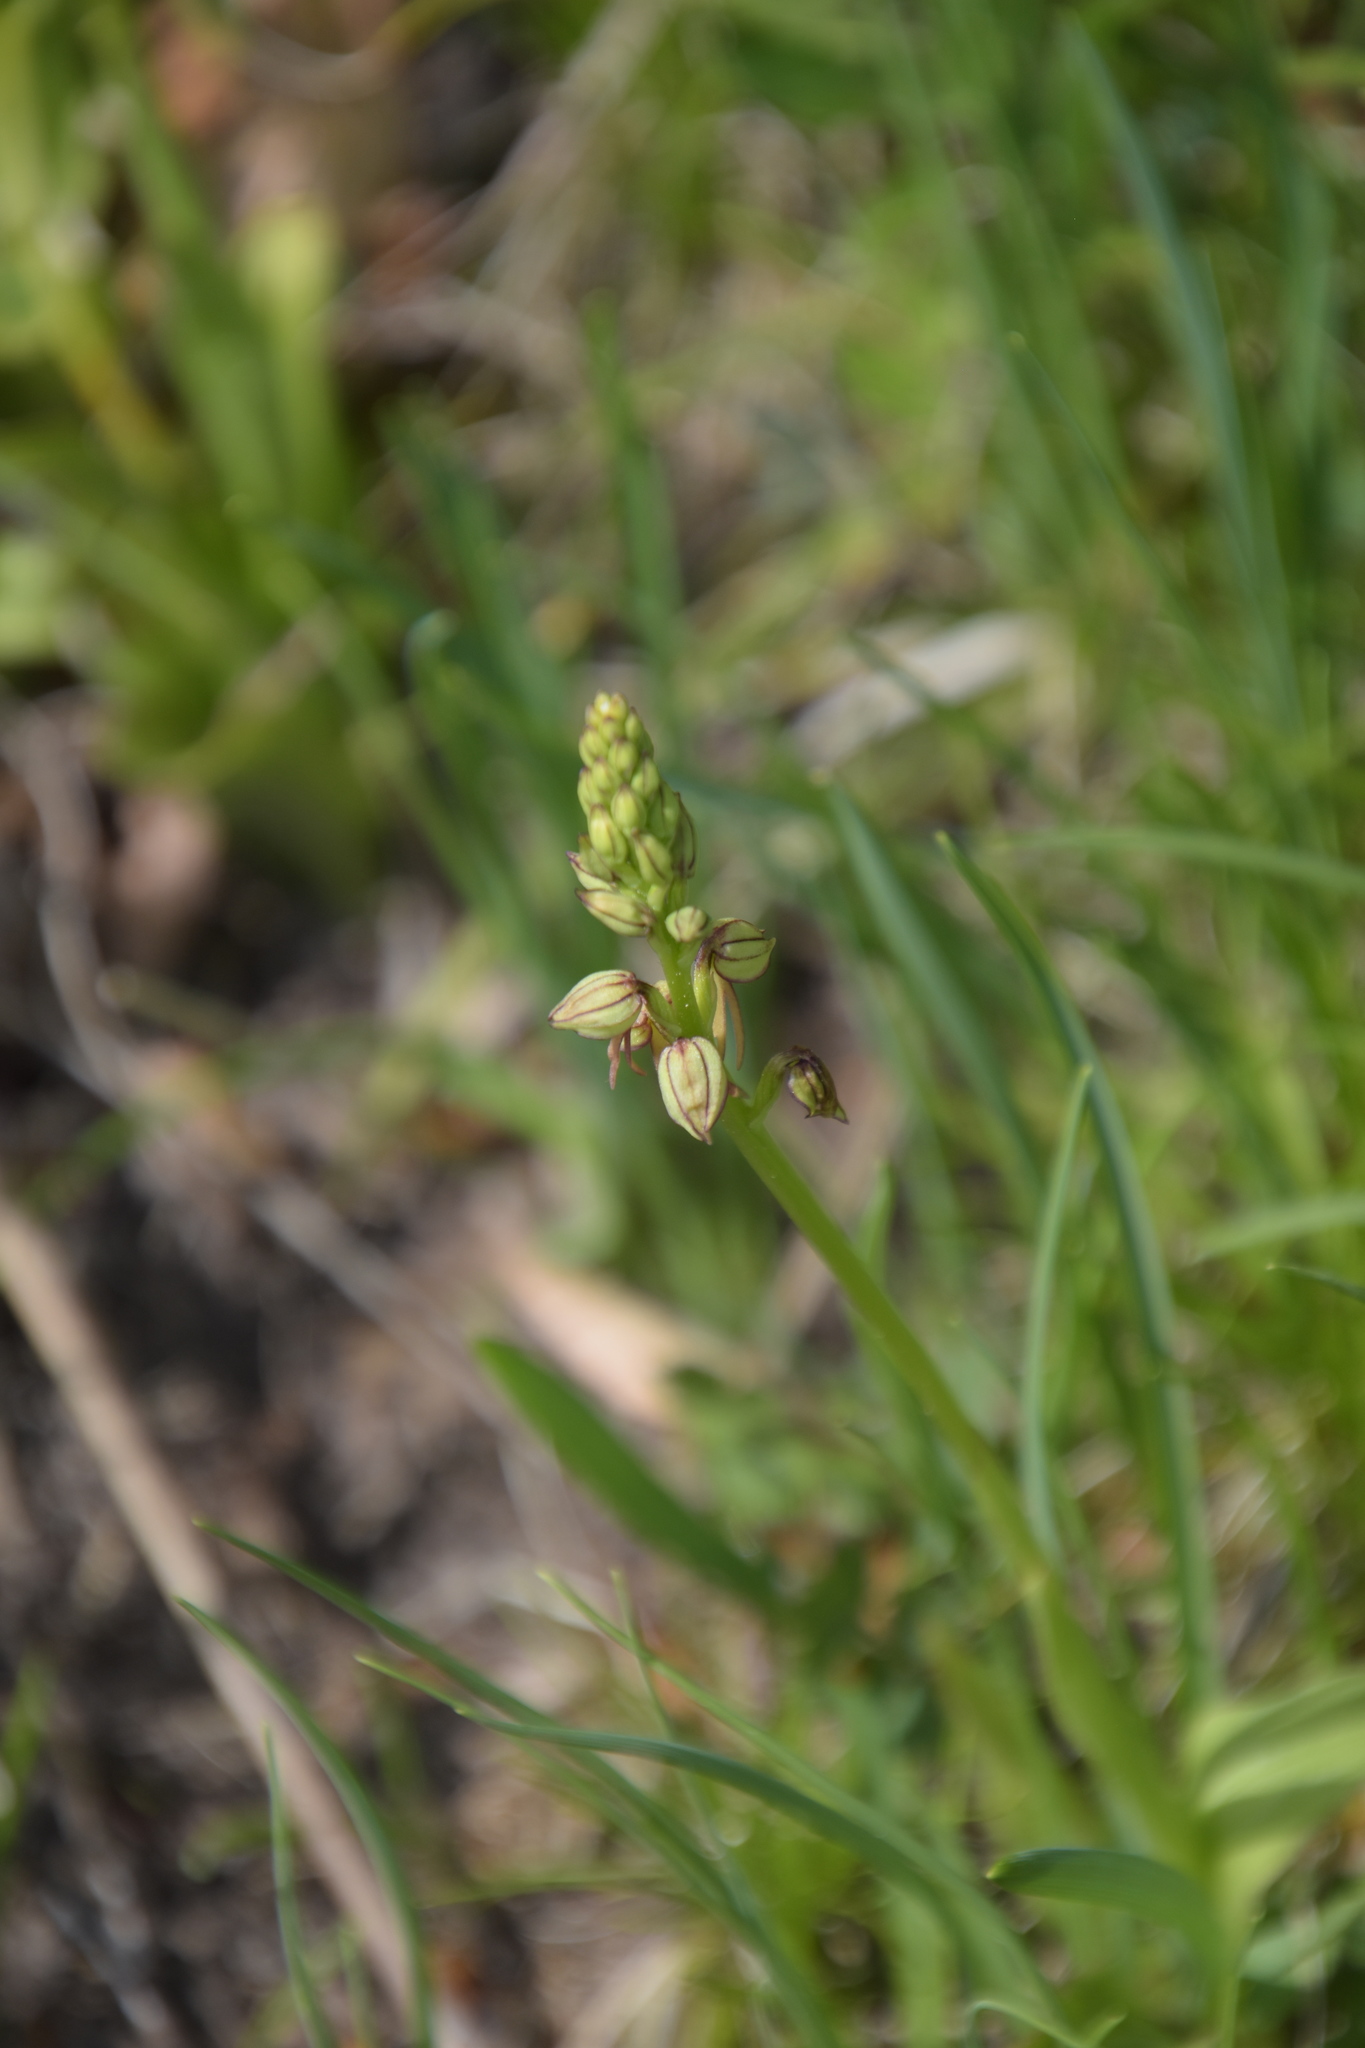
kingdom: Plantae
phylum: Tracheophyta
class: Liliopsida
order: Asparagales
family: Orchidaceae
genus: Orchis
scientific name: Orchis anthropophora
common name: Man orchid
